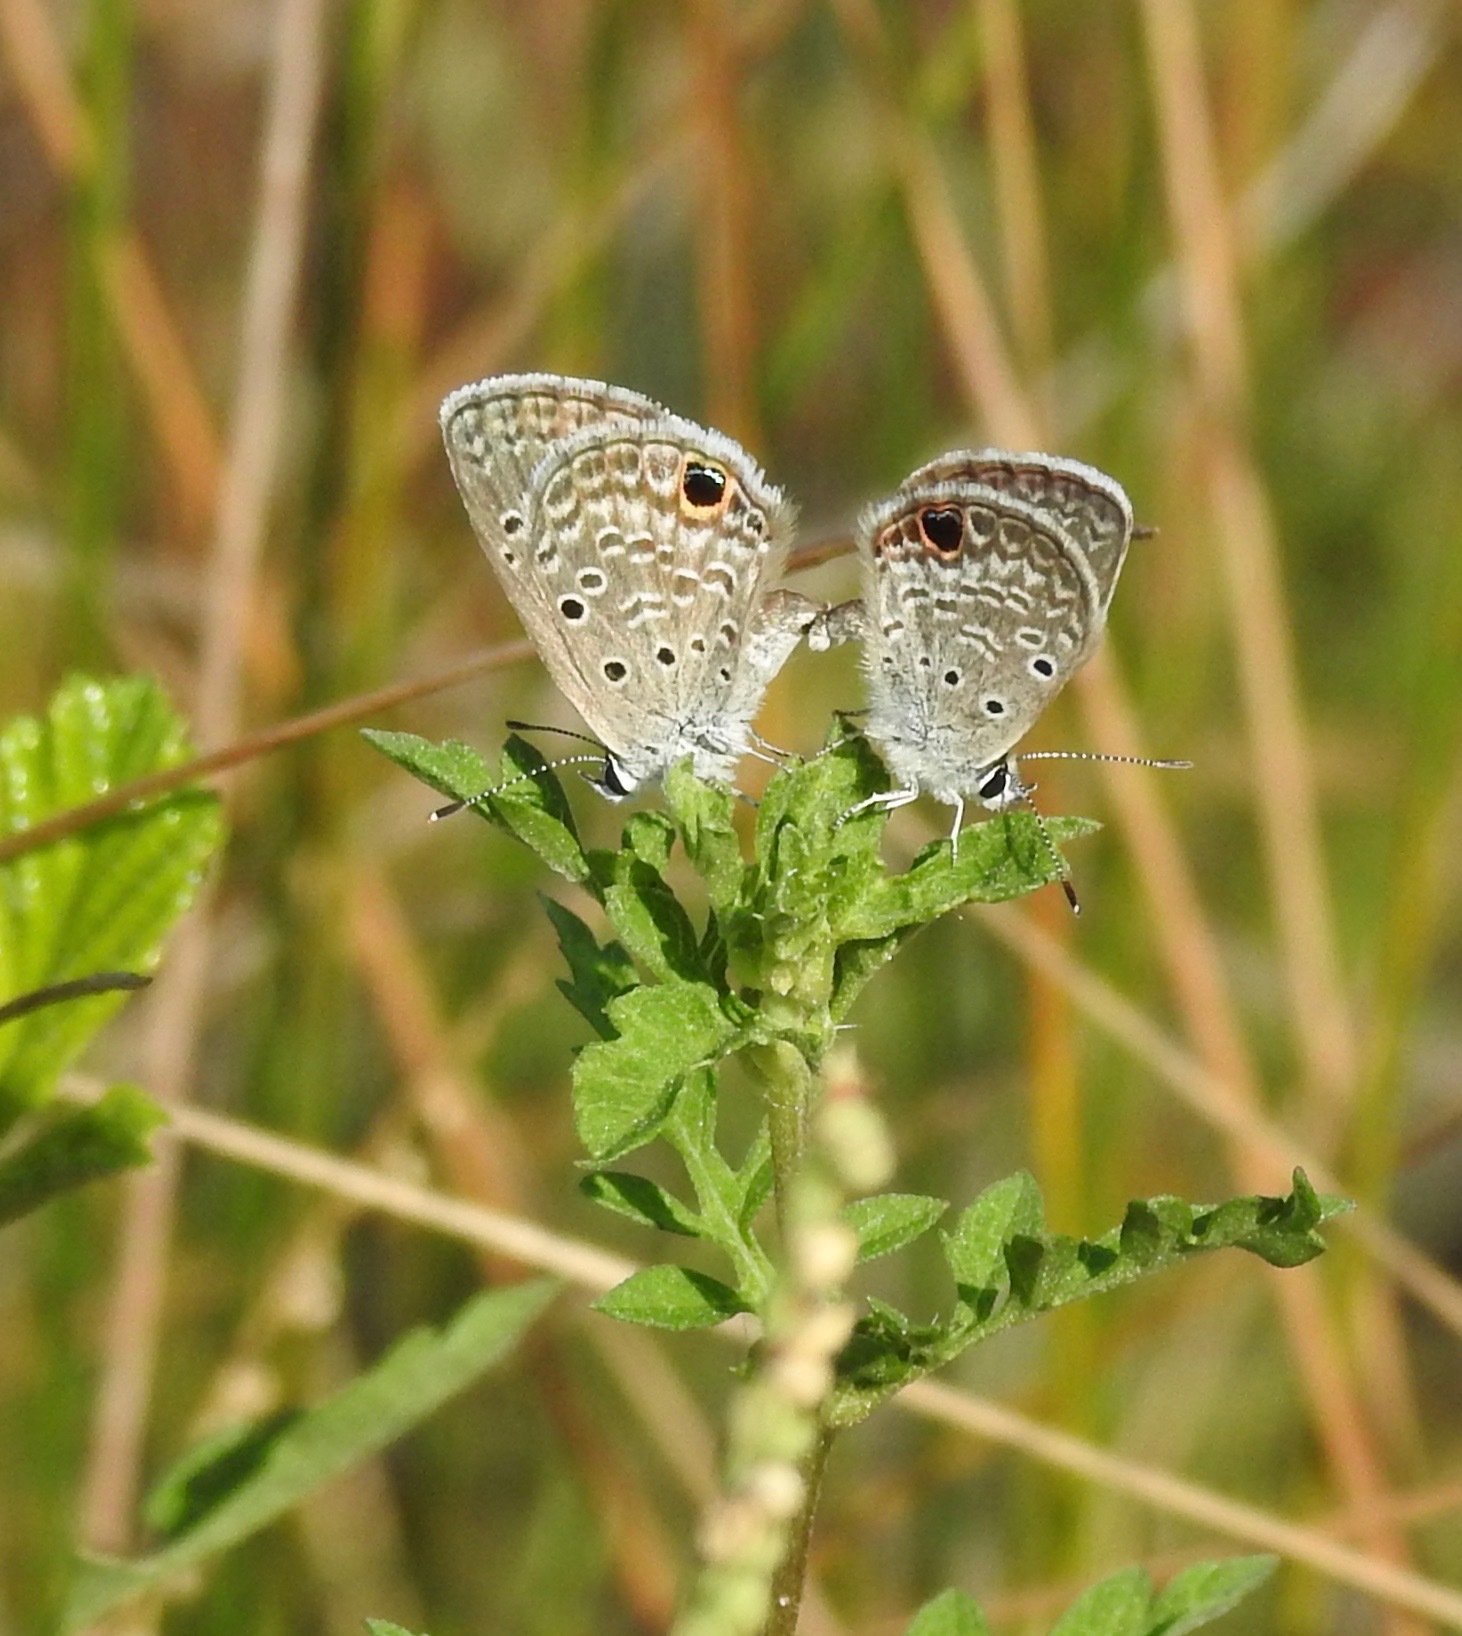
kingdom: Animalia
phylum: Arthropoda
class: Insecta
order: Lepidoptera
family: Lycaenidae
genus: Hemiargus
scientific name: Hemiargus ceraunus
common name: Ceraunus blue
